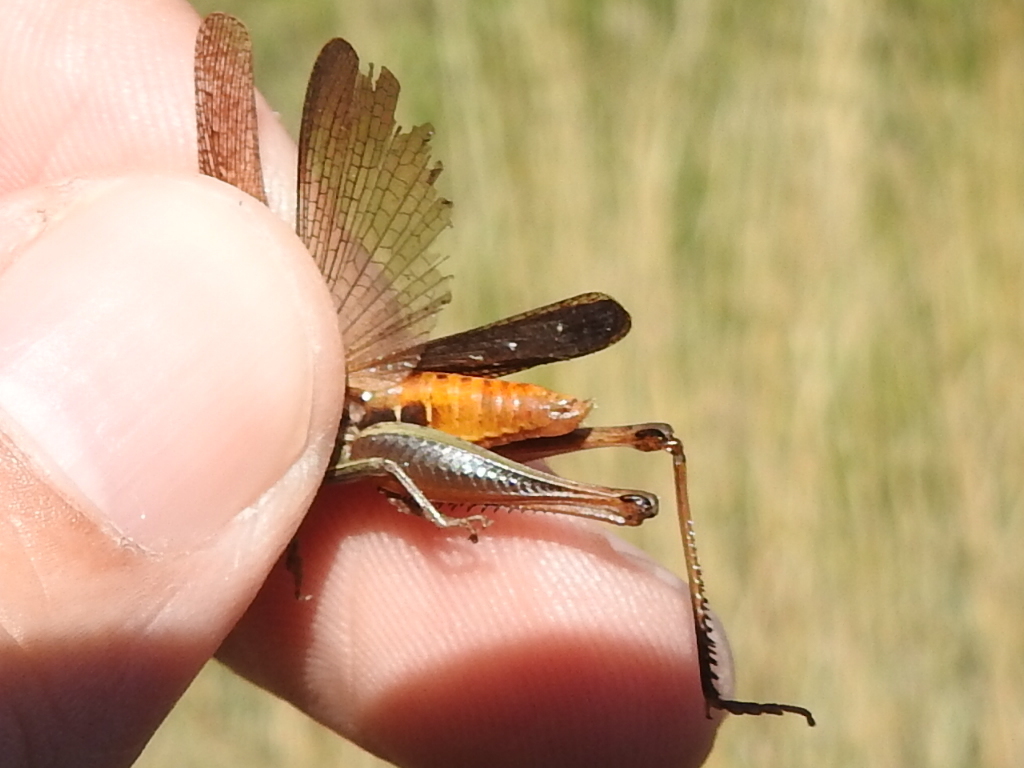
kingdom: Animalia
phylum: Arthropoda
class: Insecta
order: Orthoptera
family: Acrididae
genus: Amblytropidia
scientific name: Amblytropidia mysteca
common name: Brown winter grasshopper
